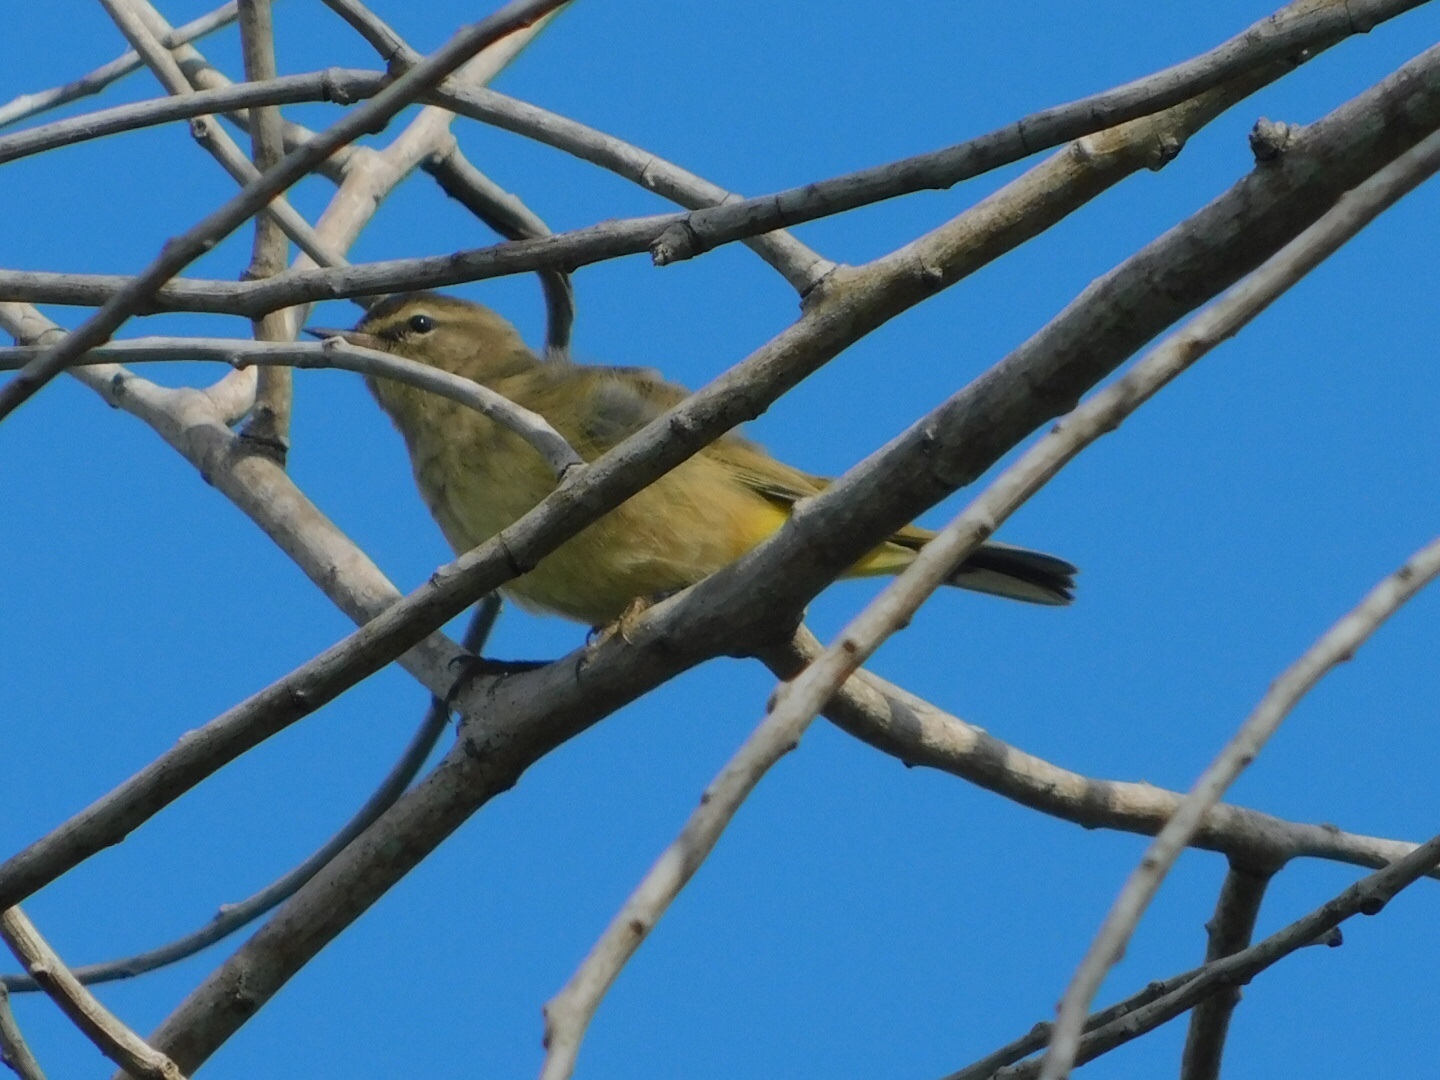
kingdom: Animalia
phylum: Chordata
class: Aves
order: Passeriformes
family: Parulidae
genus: Setophaga
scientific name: Setophaga palmarum
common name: Palm warbler
